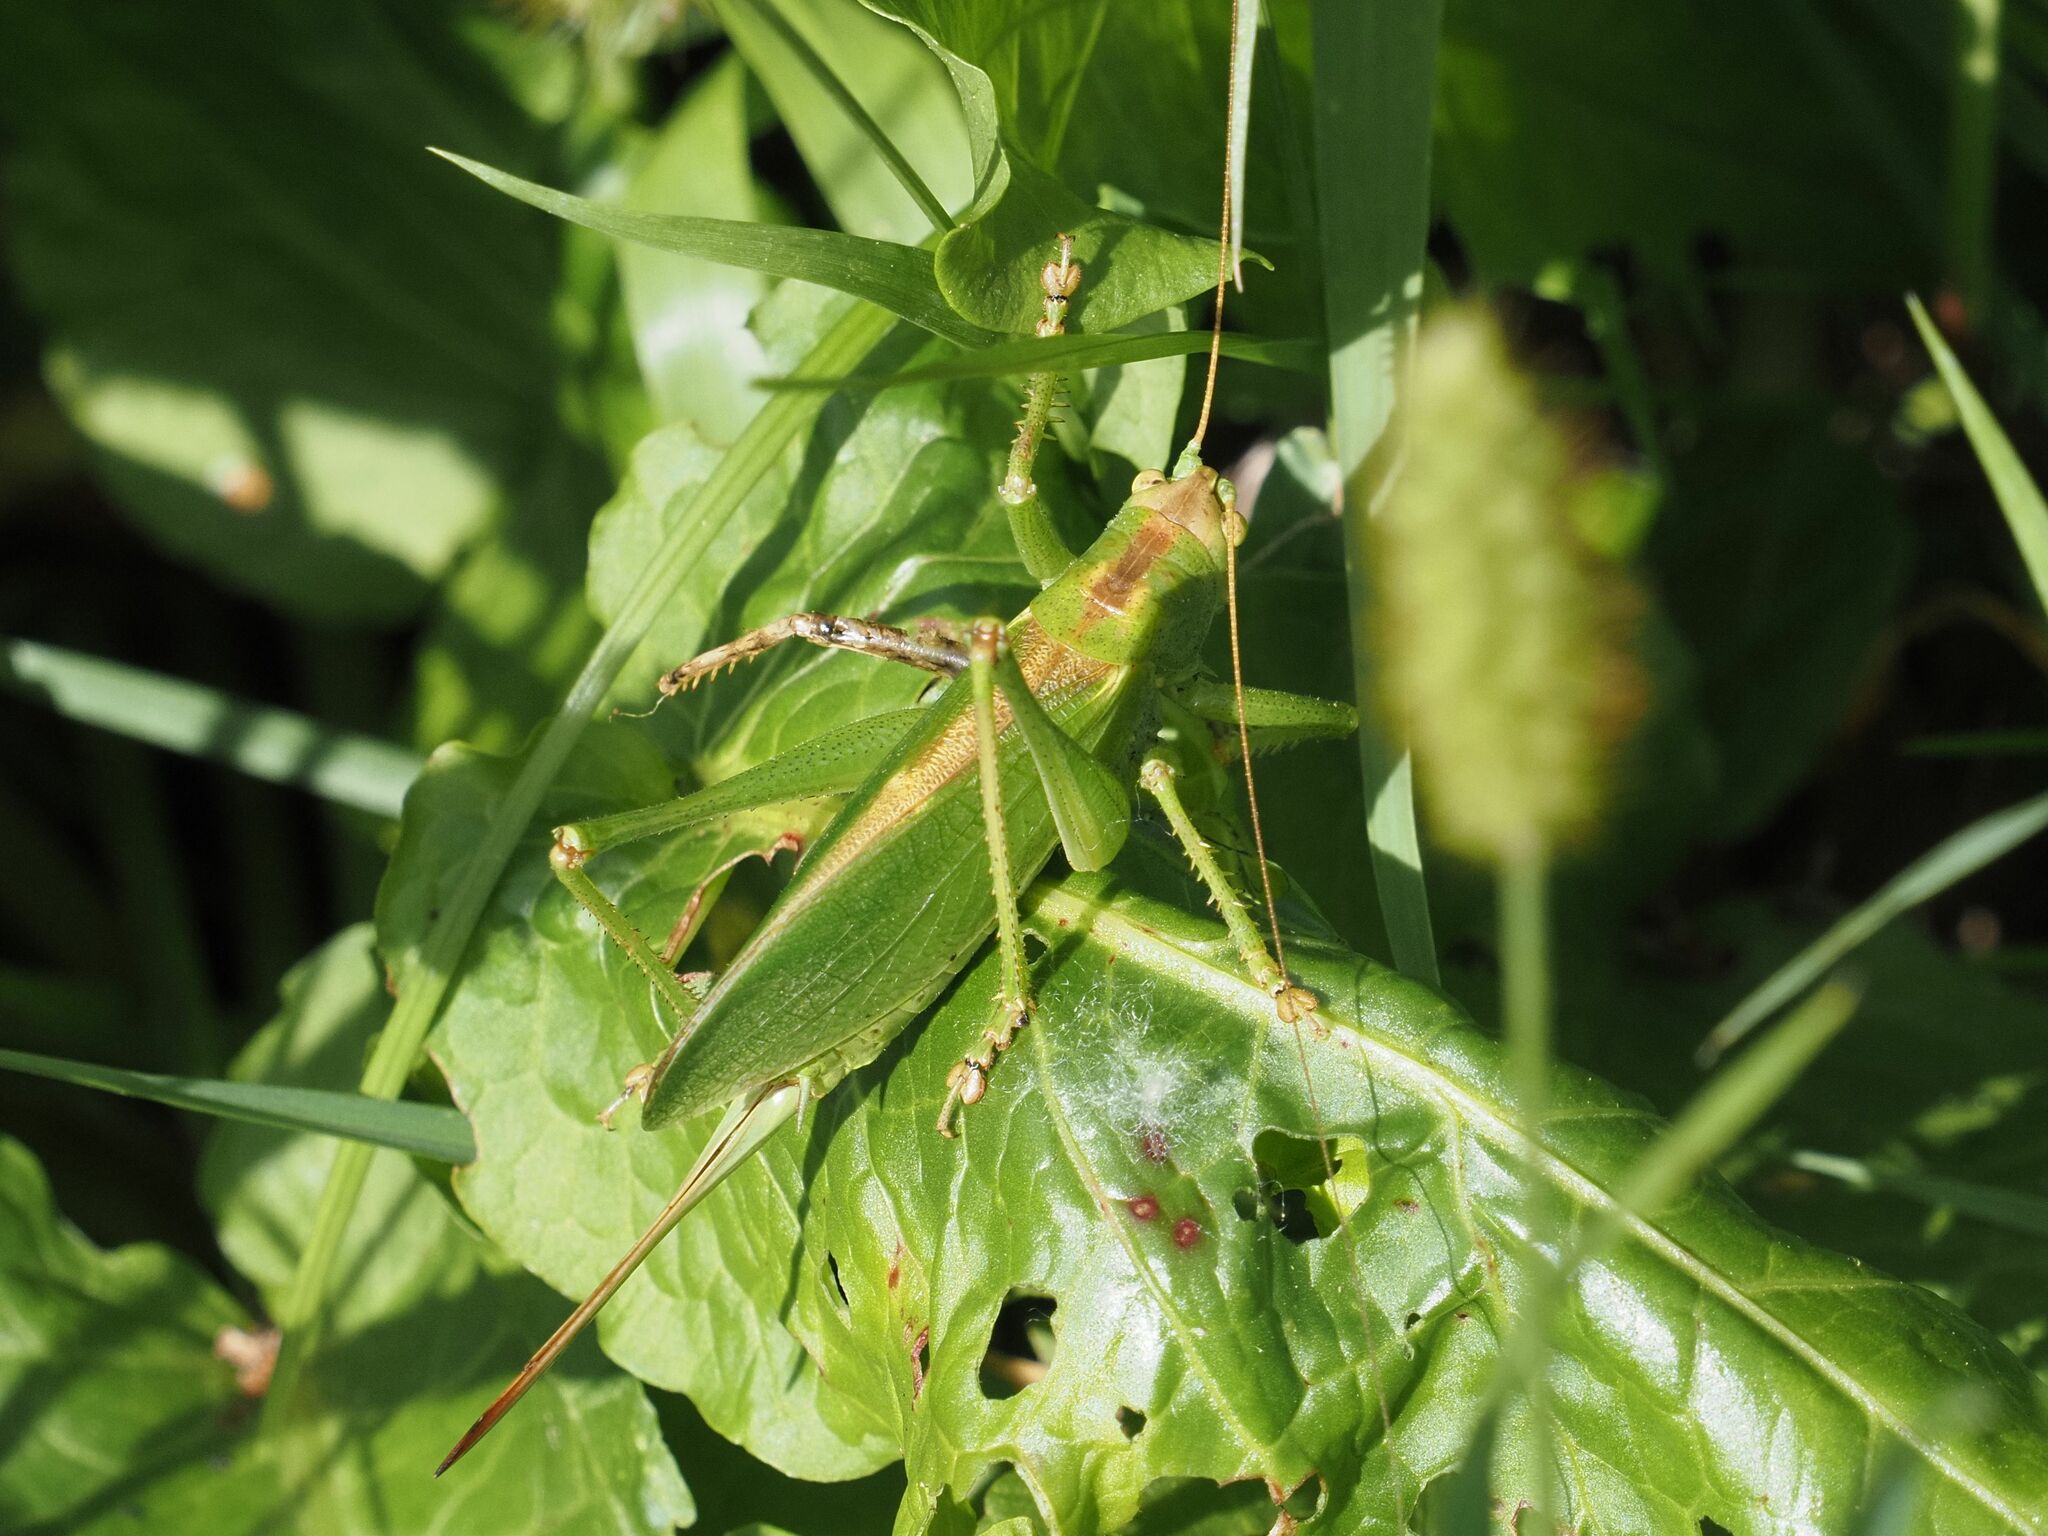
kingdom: Animalia
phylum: Arthropoda
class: Insecta
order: Orthoptera
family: Tettigoniidae
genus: Tettigonia
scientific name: Tettigonia cantans
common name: Upland green bush-cricket
